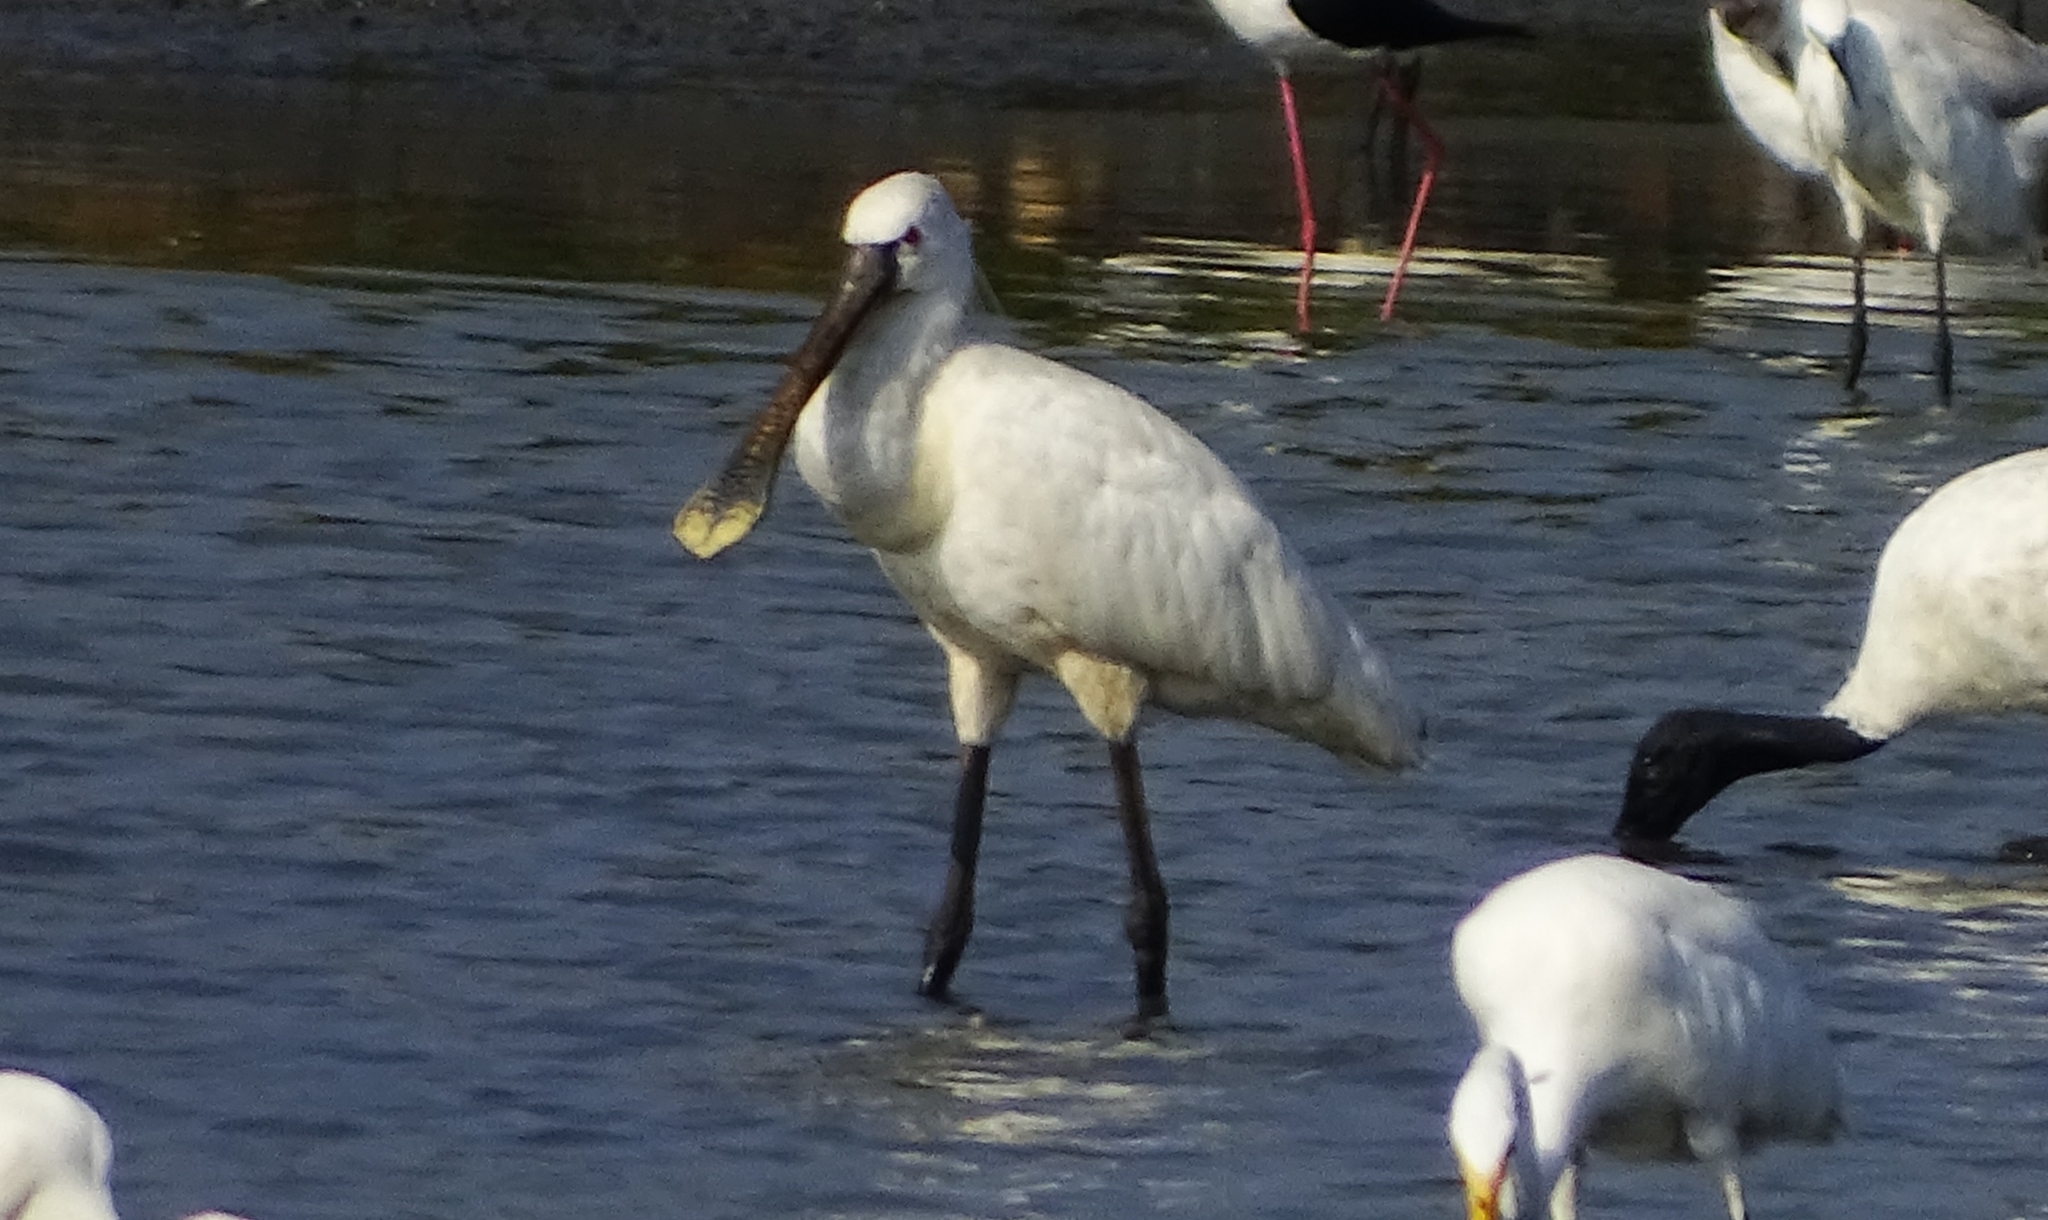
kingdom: Animalia
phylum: Chordata
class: Aves
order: Pelecaniformes
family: Threskiornithidae
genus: Platalea
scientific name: Platalea leucorodia
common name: Eurasian spoonbill
